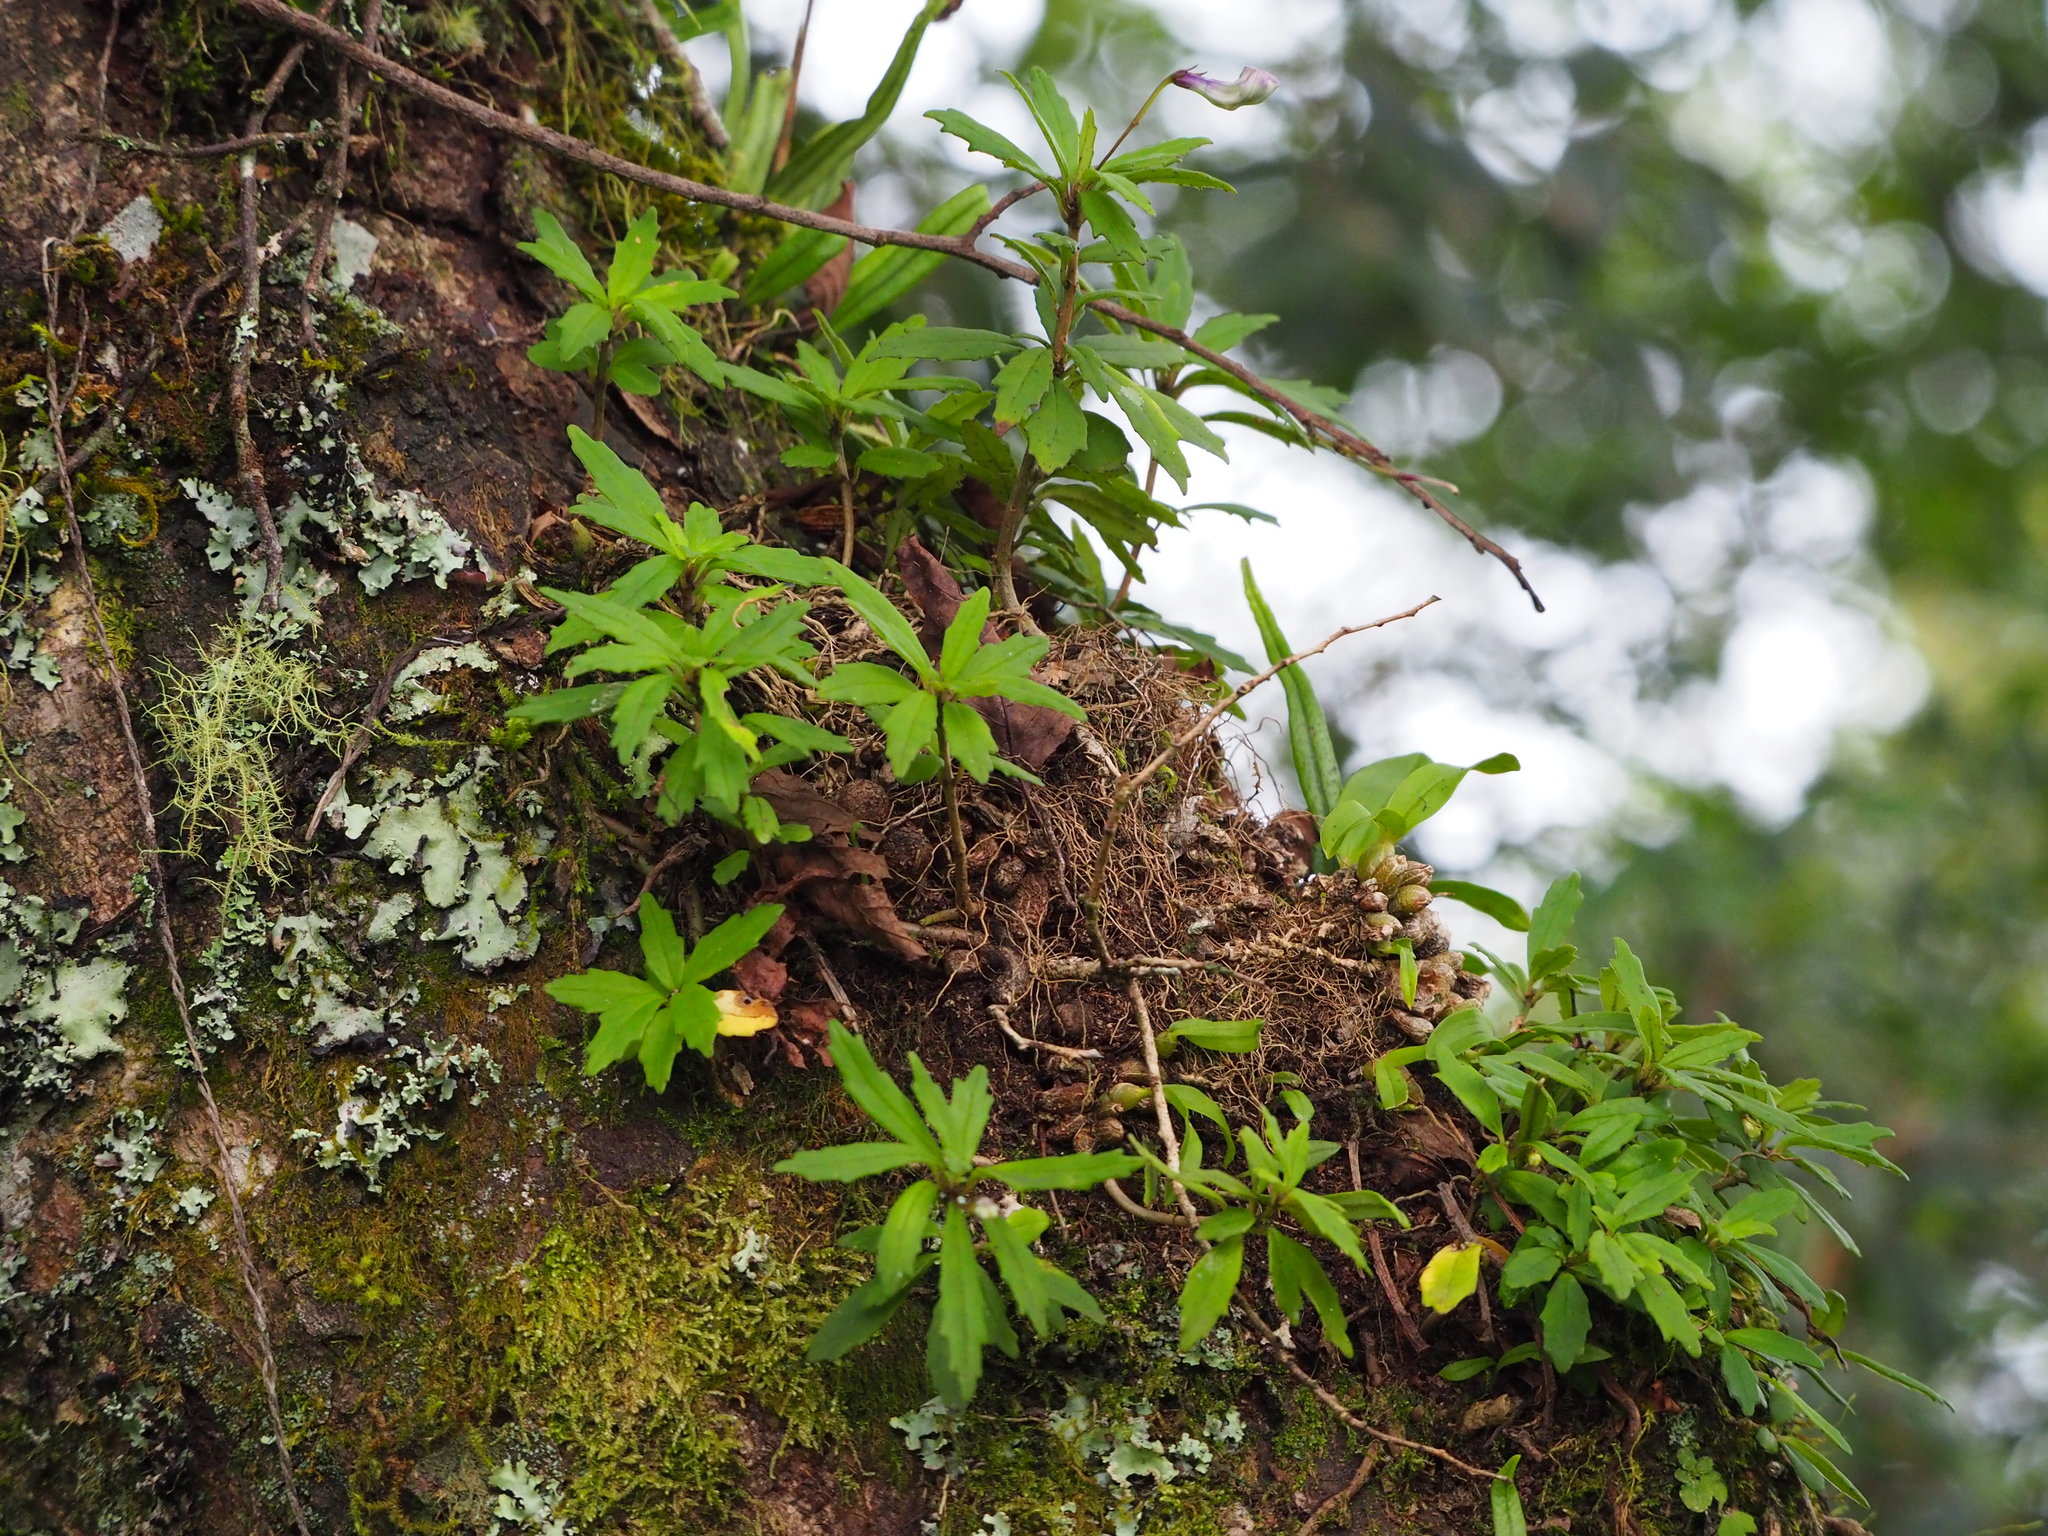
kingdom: Plantae
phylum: Tracheophyta
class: Magnoliopsida
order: Lamiales
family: Gesneriaceae
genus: Lysionotus
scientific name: Lysionotus pauciflorus
